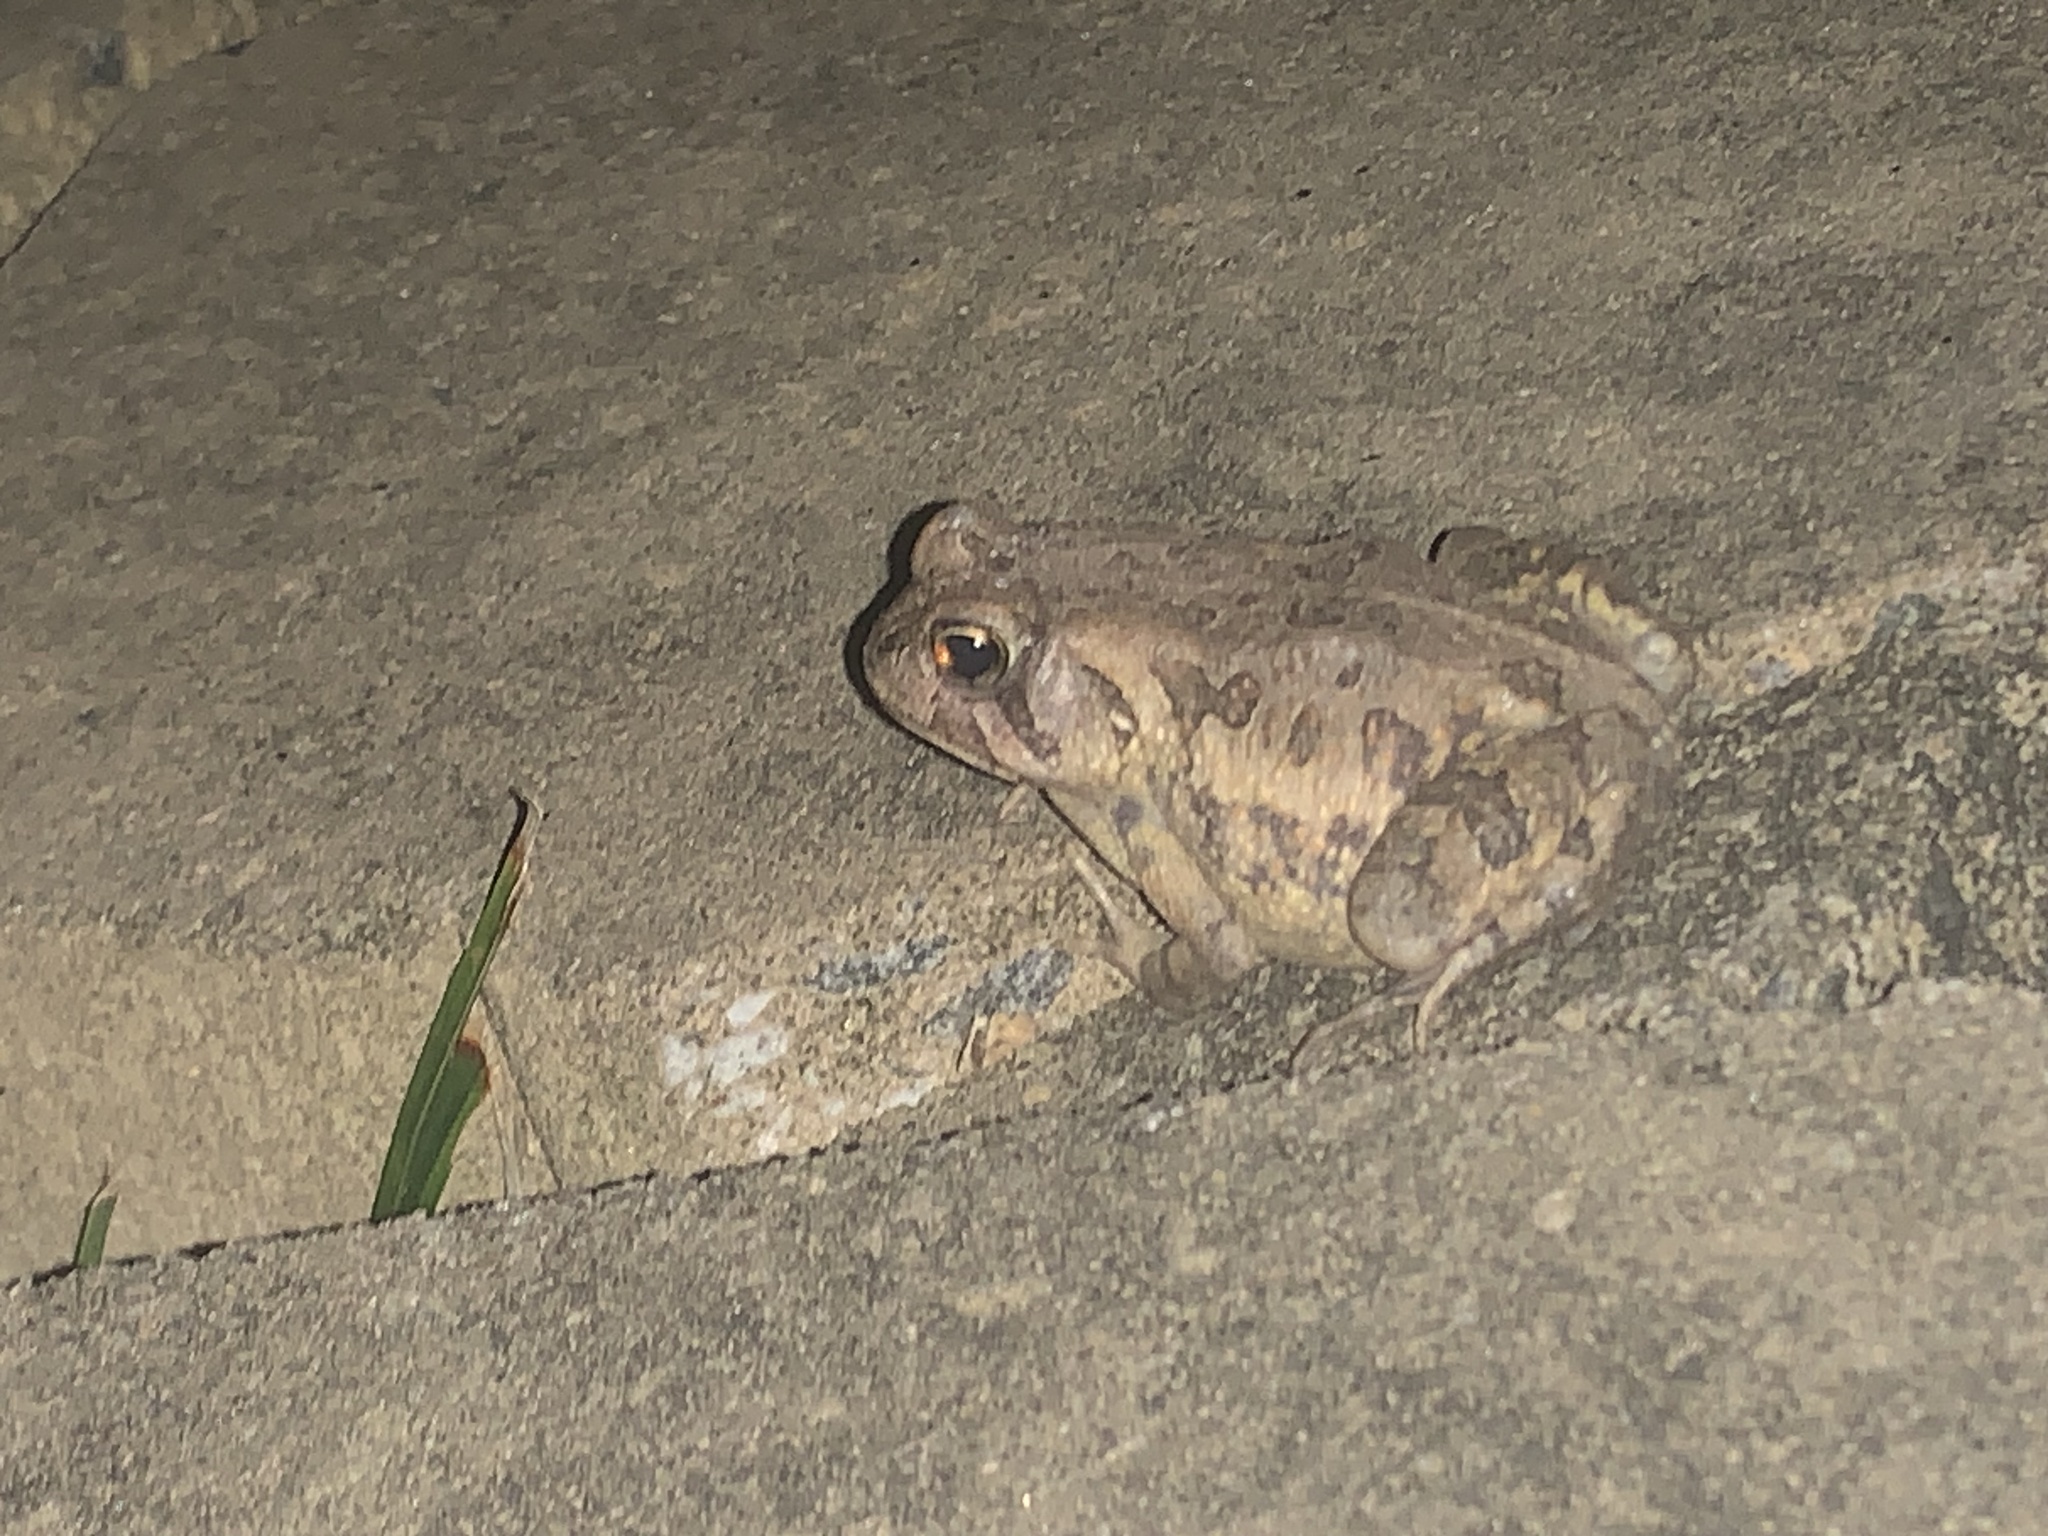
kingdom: Animalia
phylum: Chordata
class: Amphibia
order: Anura
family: Bufonidae
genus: Anaxyrus
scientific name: Anaxyrus fowleri
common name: Fowler's toad
